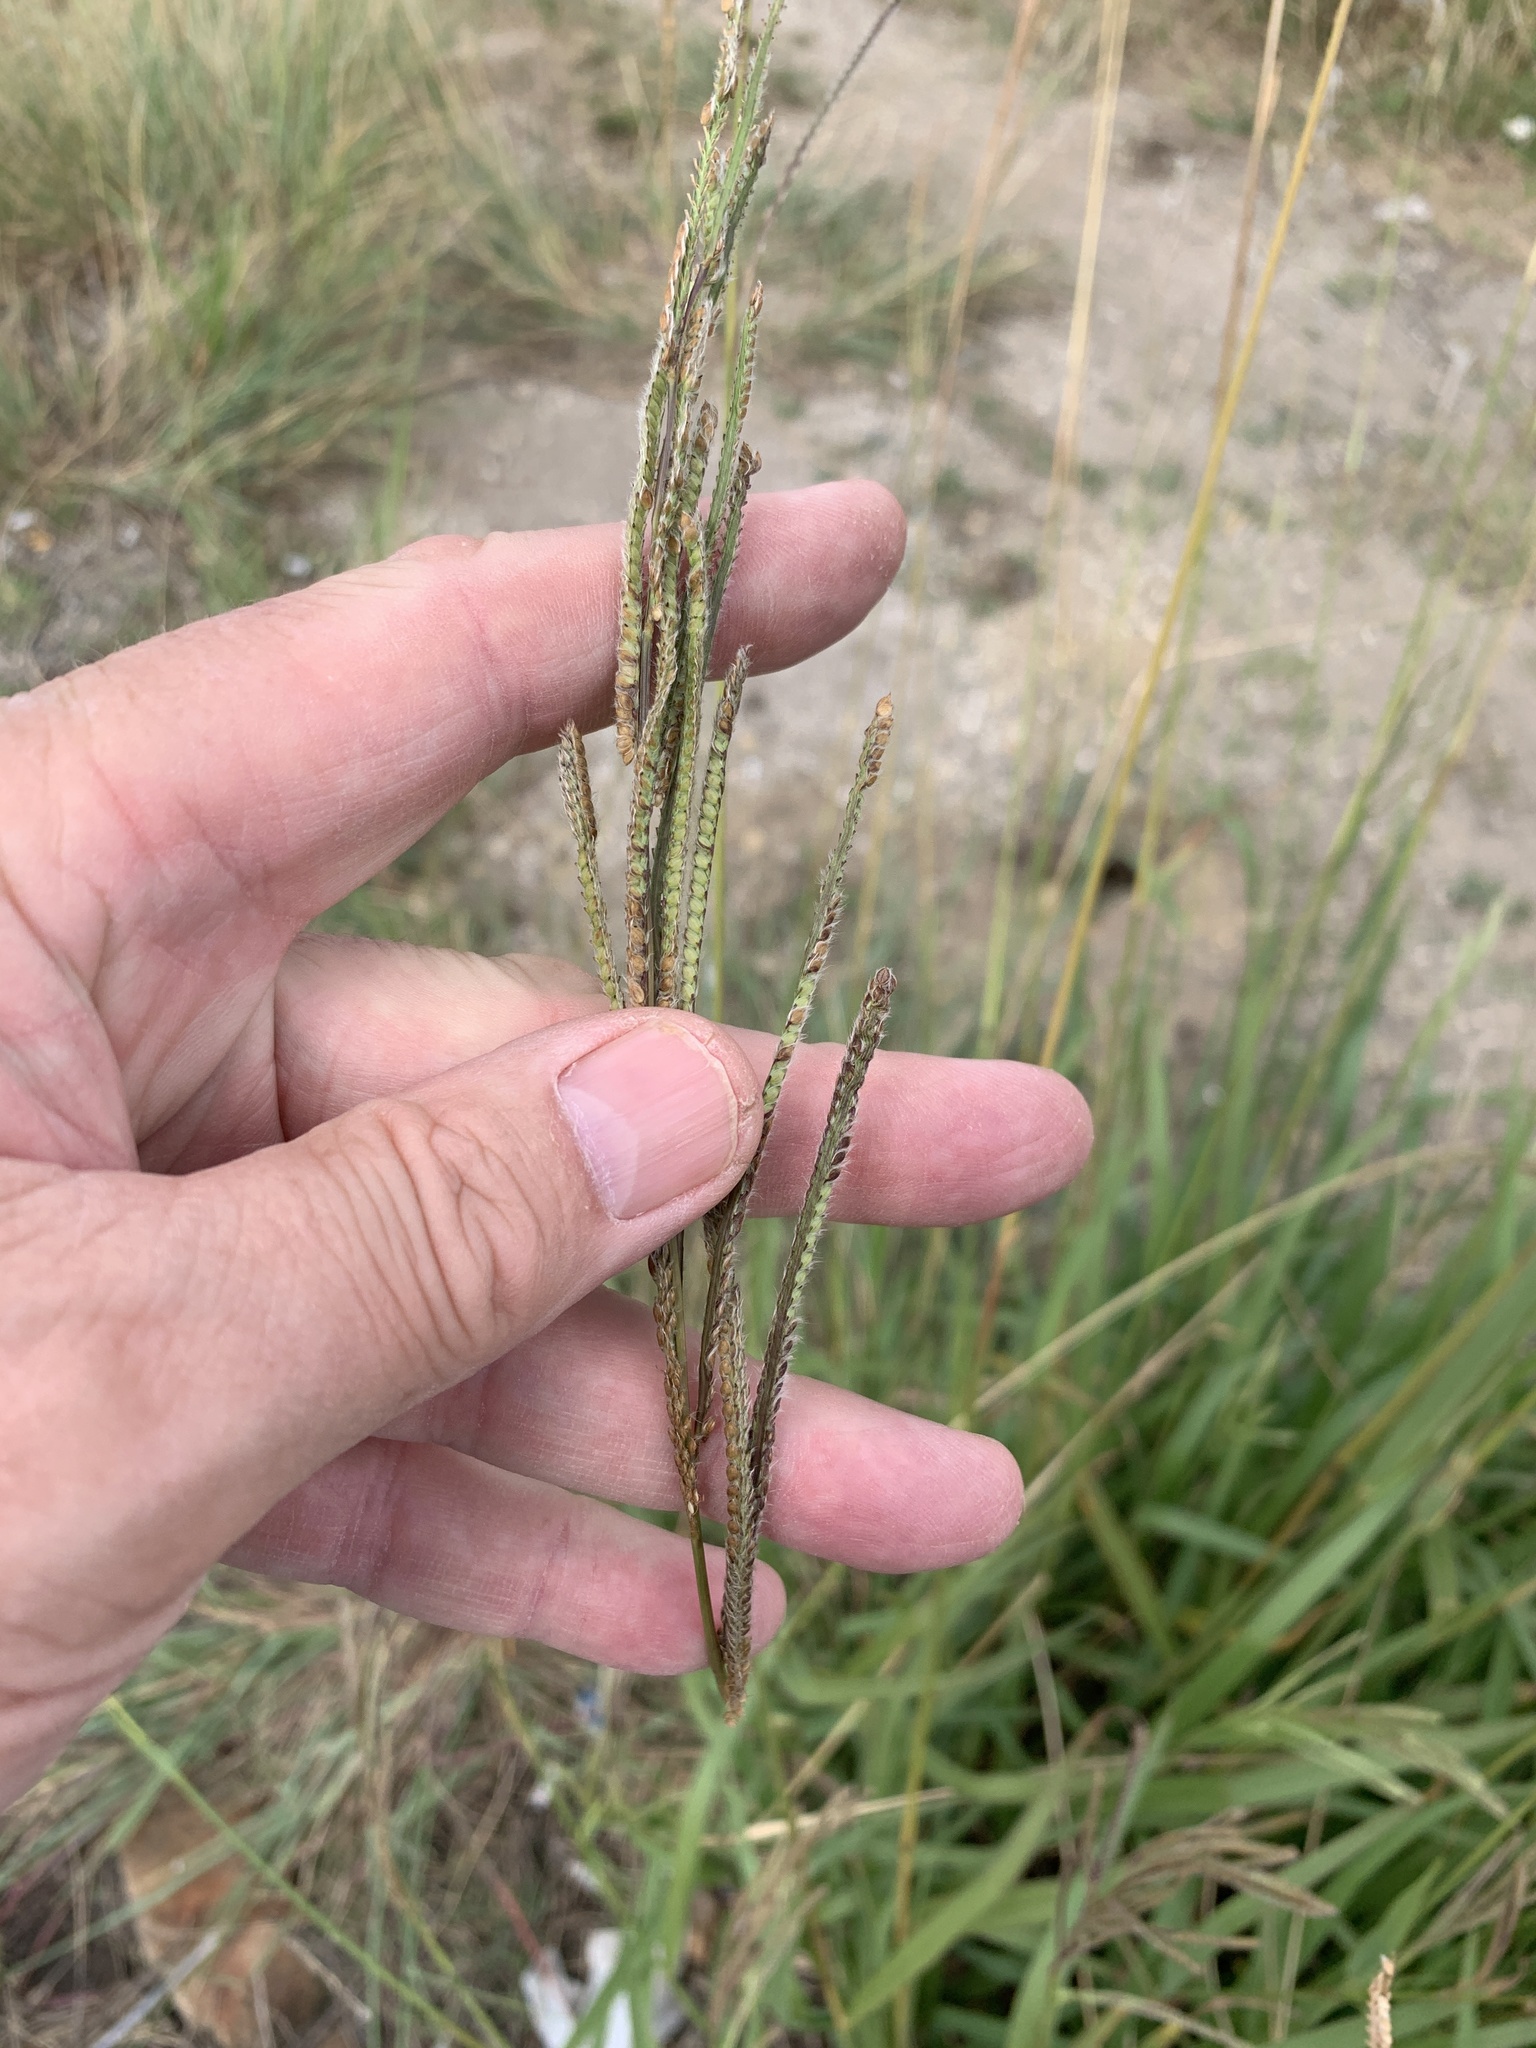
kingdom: Plantae
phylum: Tracheophyta
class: Liliopsida
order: Poales
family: Poaceae
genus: Paspalum
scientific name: Paspalum urvillei
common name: Vasey's grass
